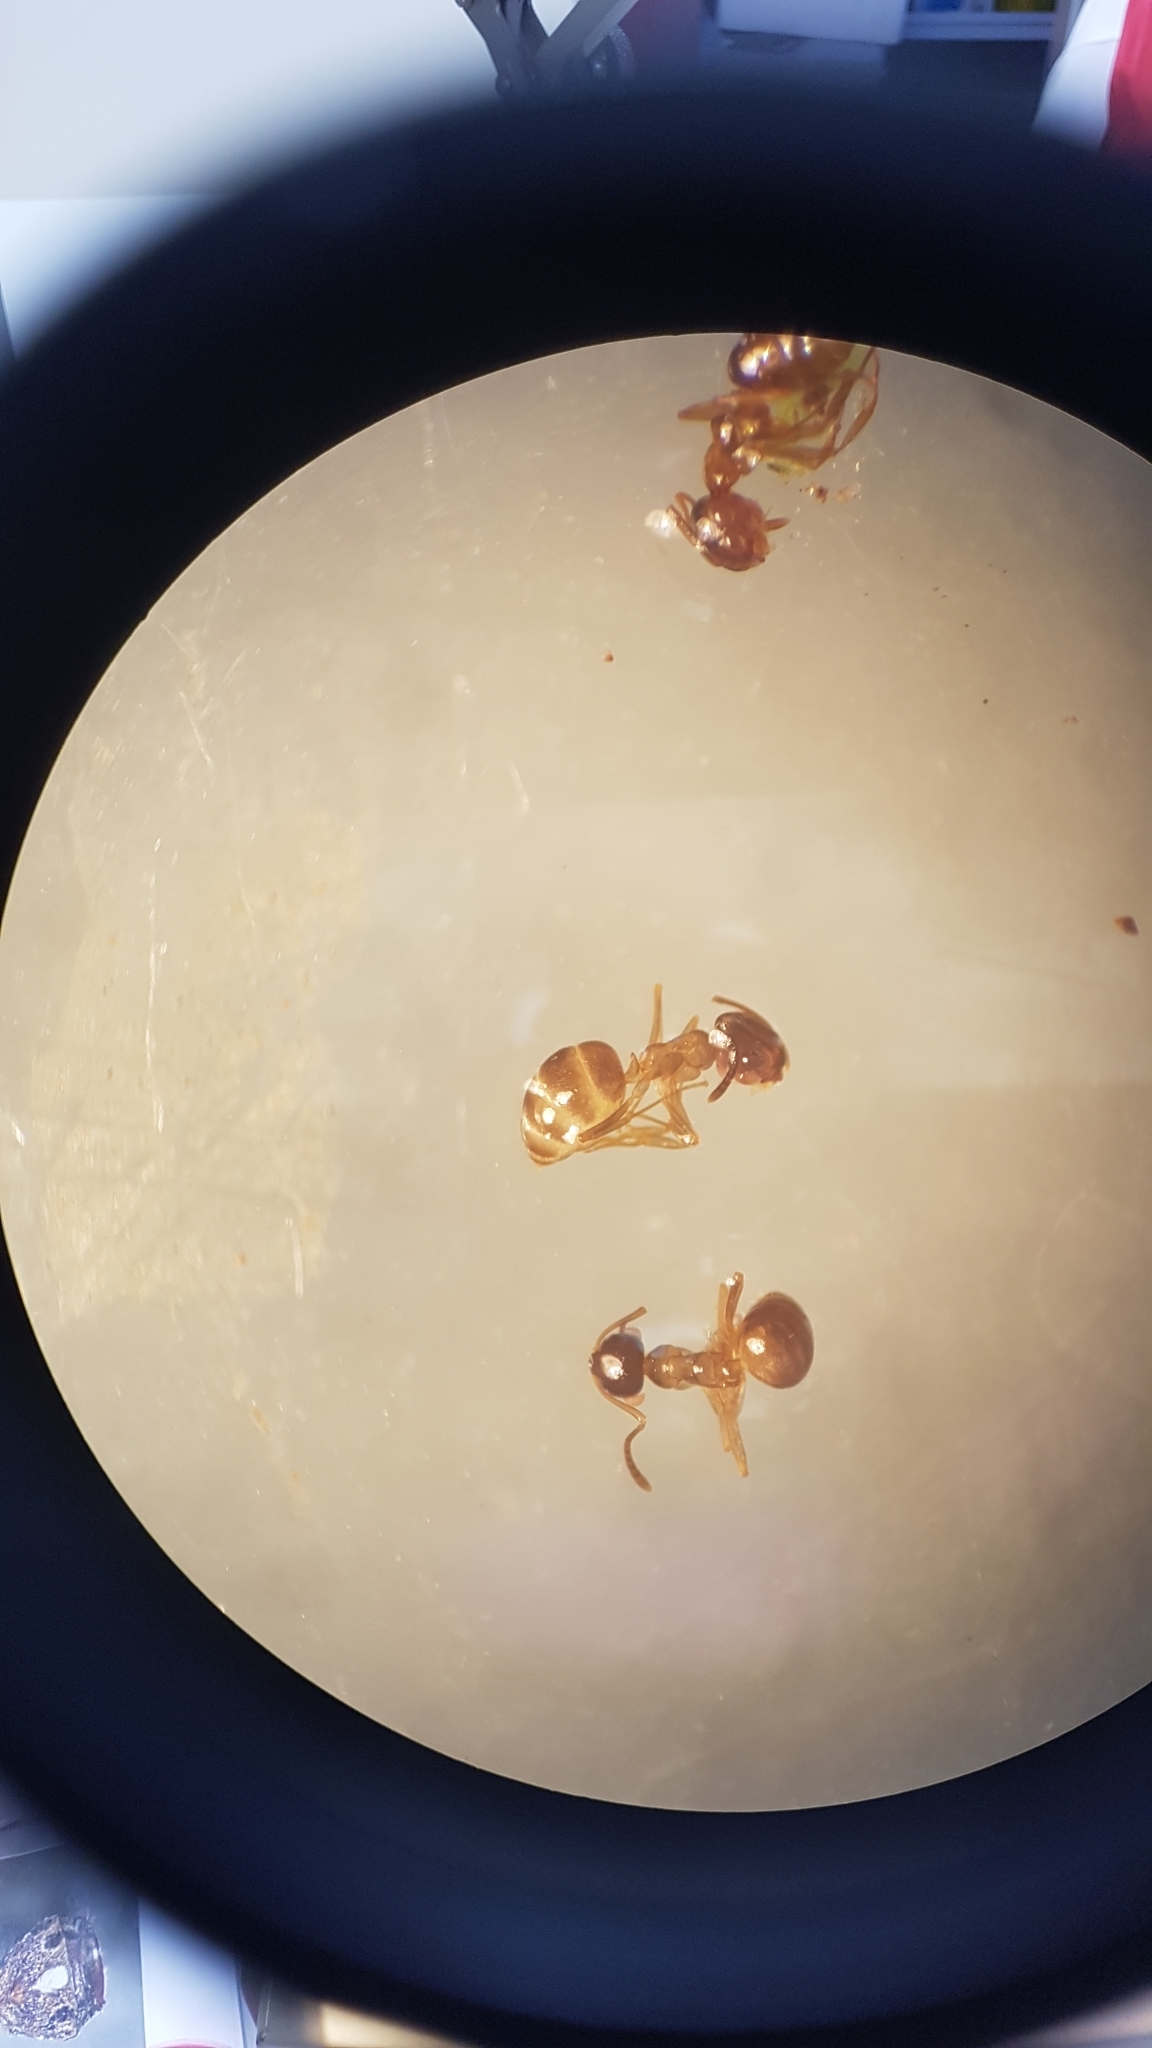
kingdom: Animalia
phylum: Arthropoda
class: Insecta
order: Hymenoptera
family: Formicidae
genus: Prolasius
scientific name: Prolasius advenus
